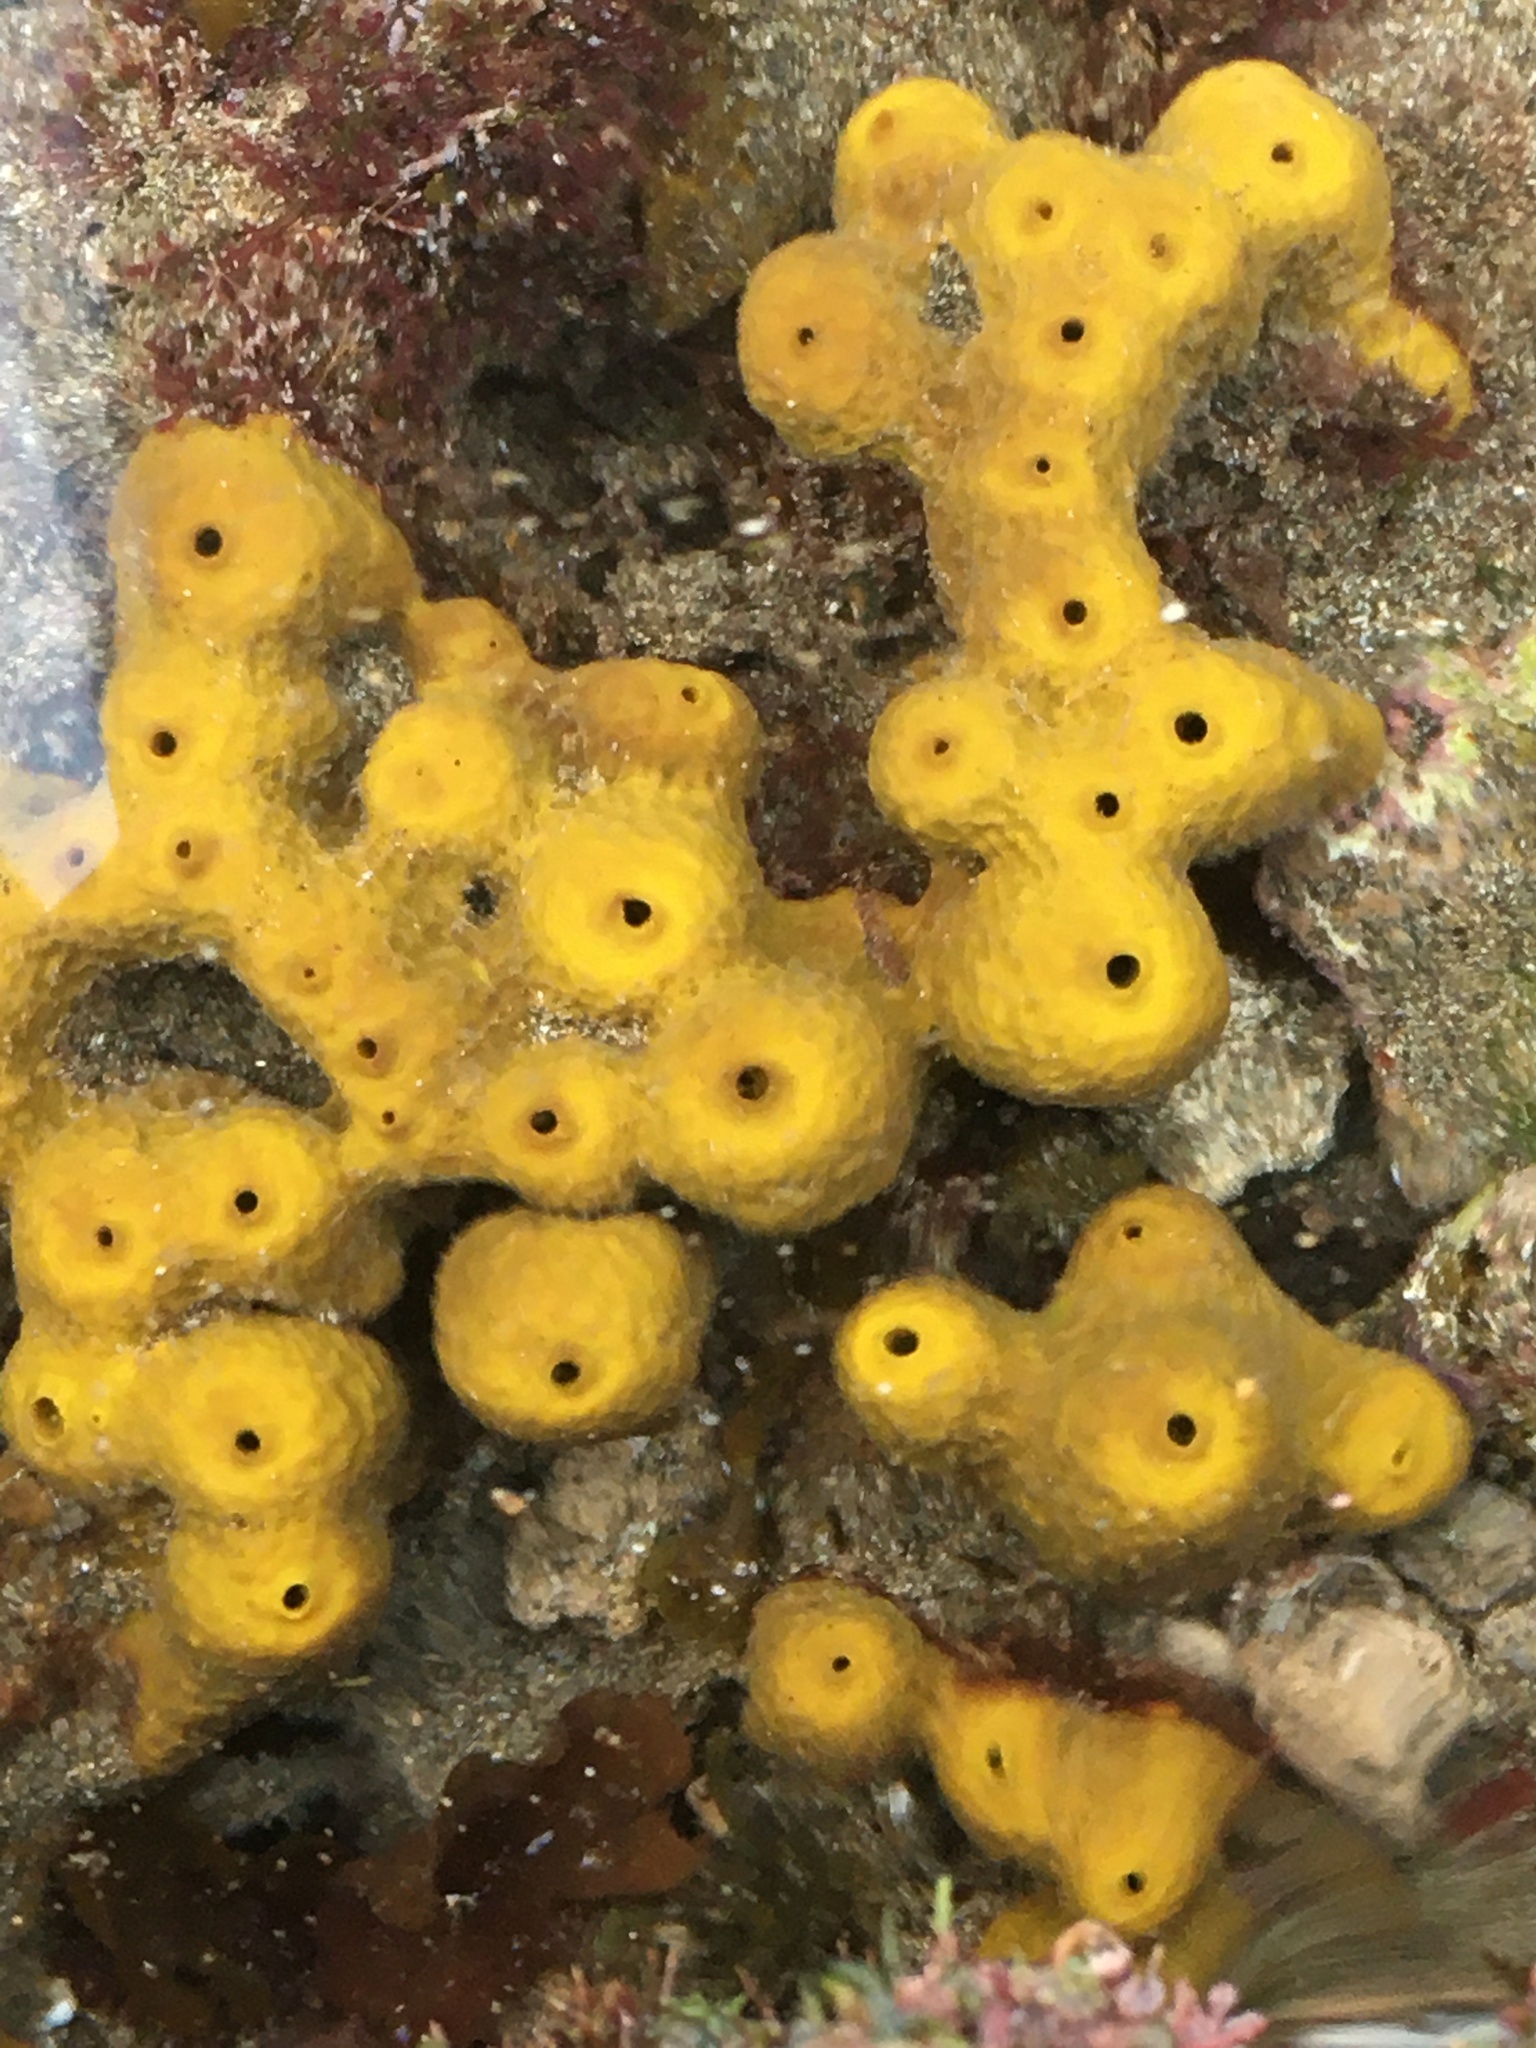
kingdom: Animalia
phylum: Porifera
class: Demospongiae
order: Verongiida
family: Aplysinidae
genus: Aplysina
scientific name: Aplysina aerophoba
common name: Aureate sponge
